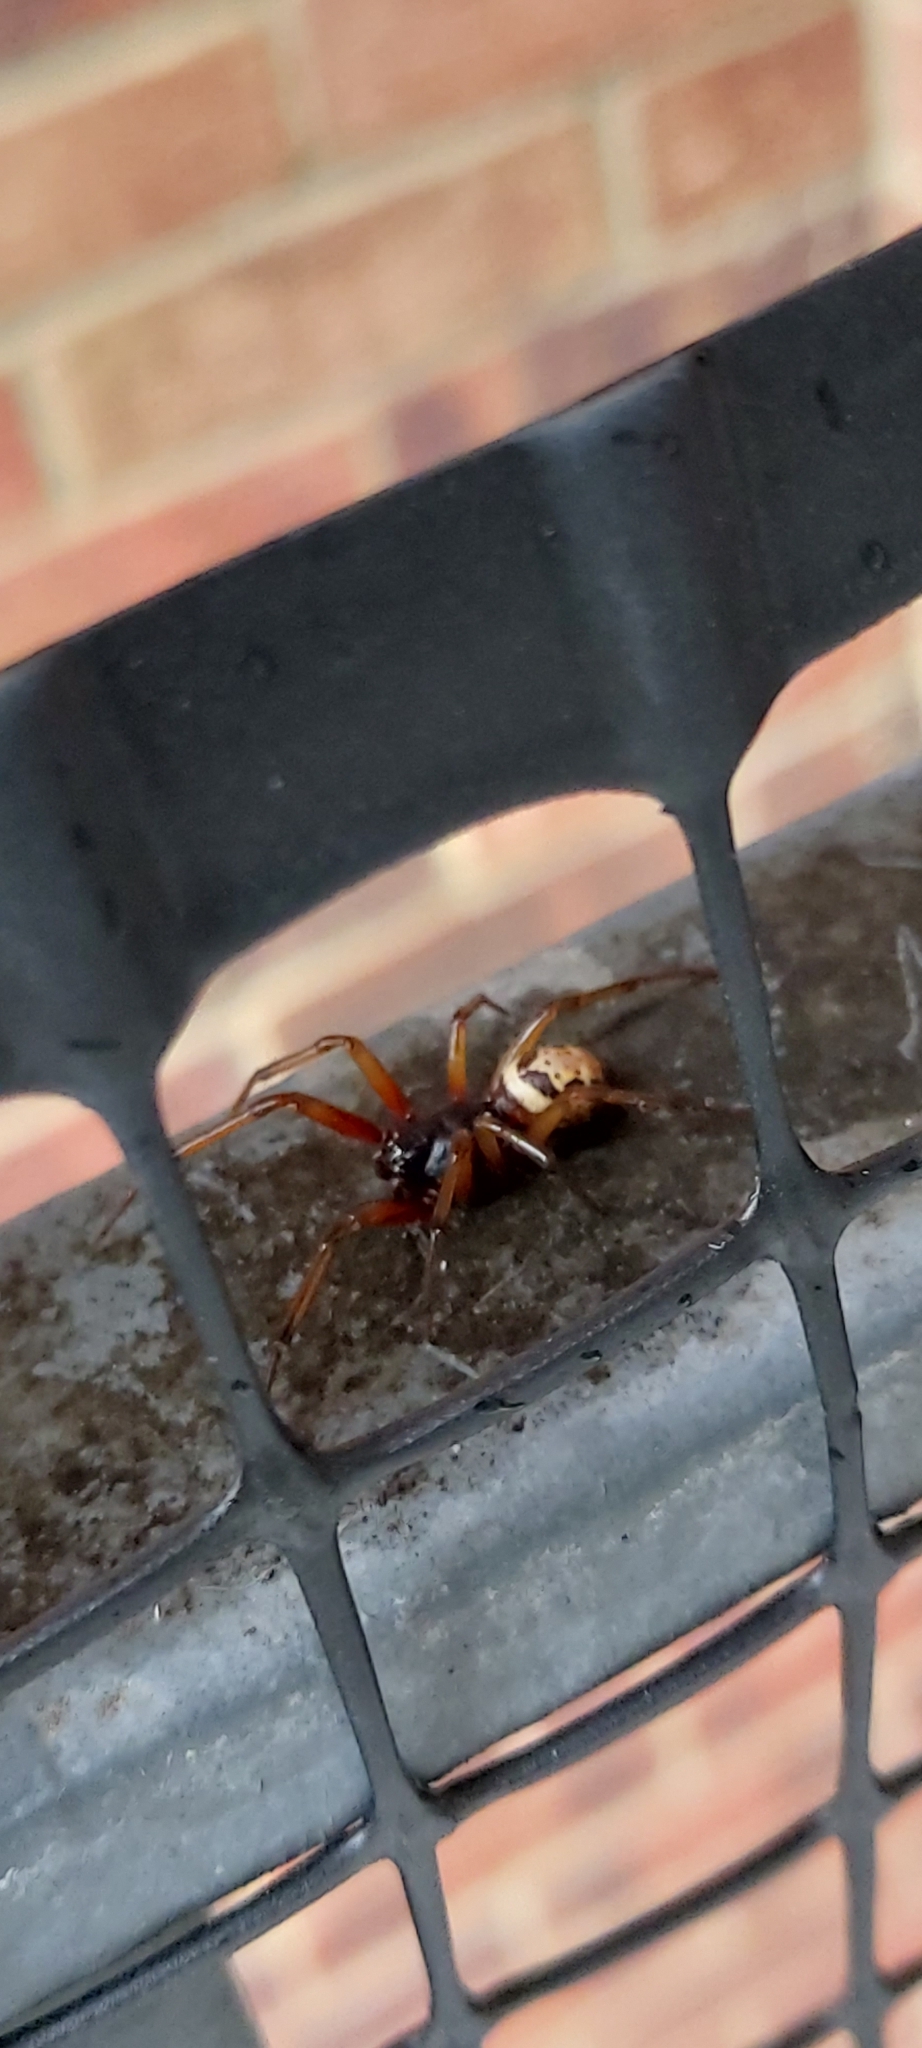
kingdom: Animalia
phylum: Arthropoda
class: Arachnida
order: Araneae
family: Theridiidae
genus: Steatoda
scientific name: Steatoda nobilis
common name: Cobweb weaver
